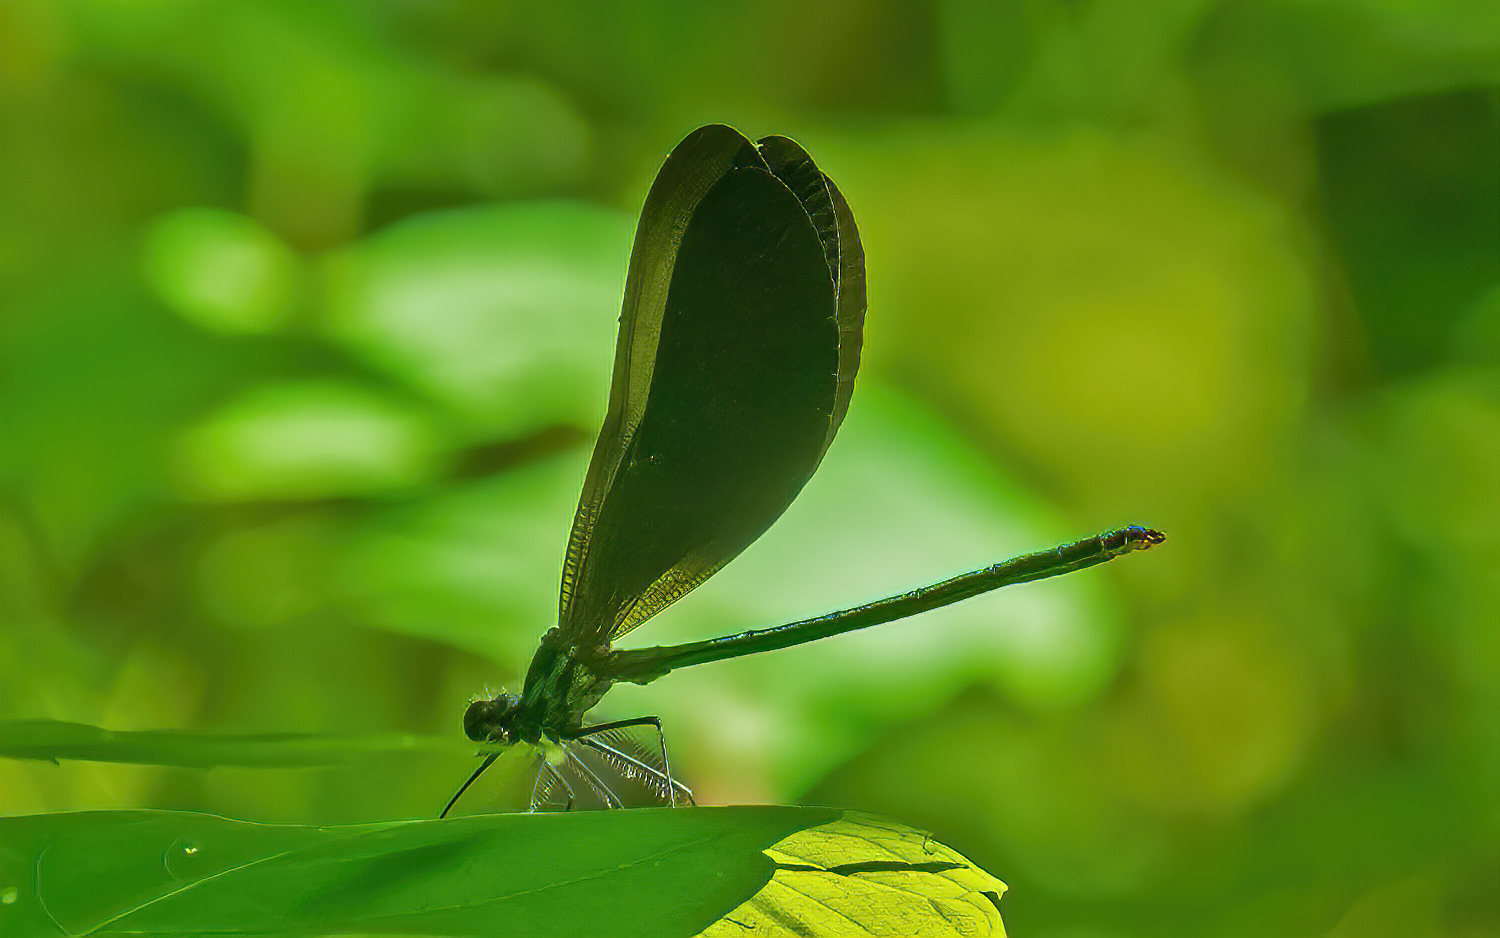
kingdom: Animalia
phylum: Arthropoda
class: Insecta
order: Odonata
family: Calopterygidae
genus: Calopteryx
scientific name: Calopteryx maculata
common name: Ebony jewelwing
